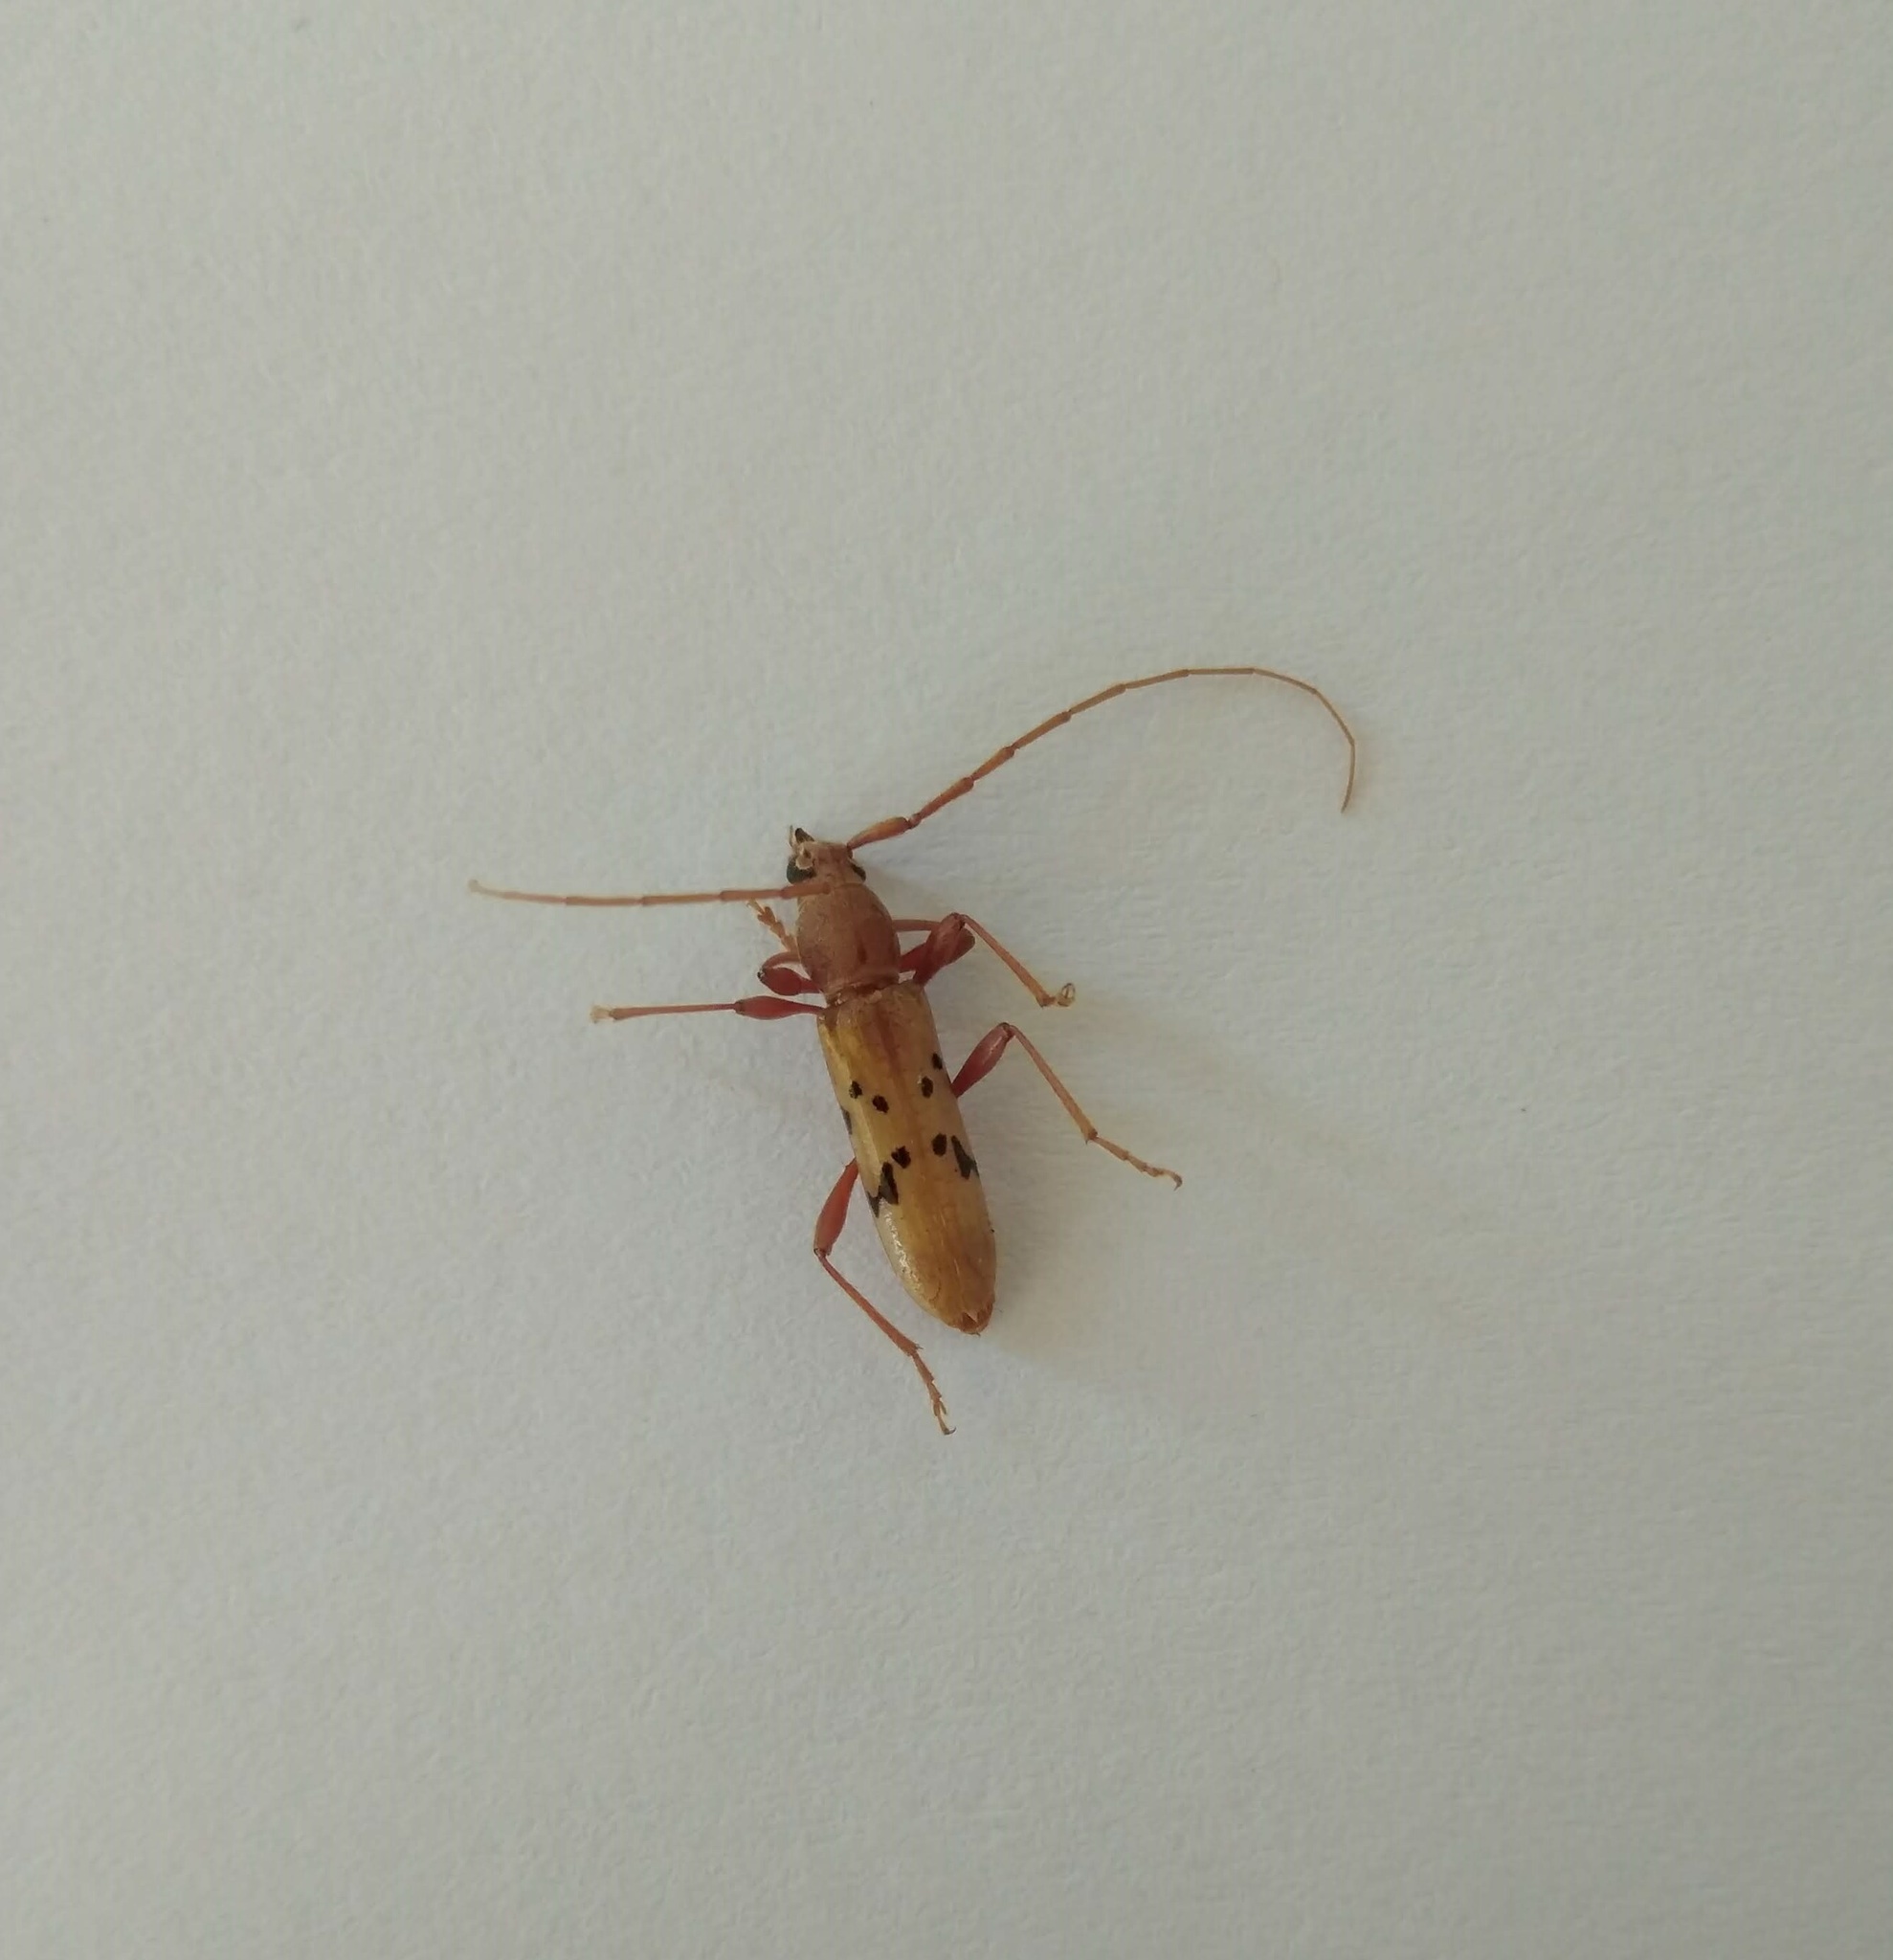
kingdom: Animalia
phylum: Arthropoda
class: Insecta
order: Coleoptera
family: Cerambycidae
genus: Xenocompsa
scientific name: Xenocompsa flavonitida
